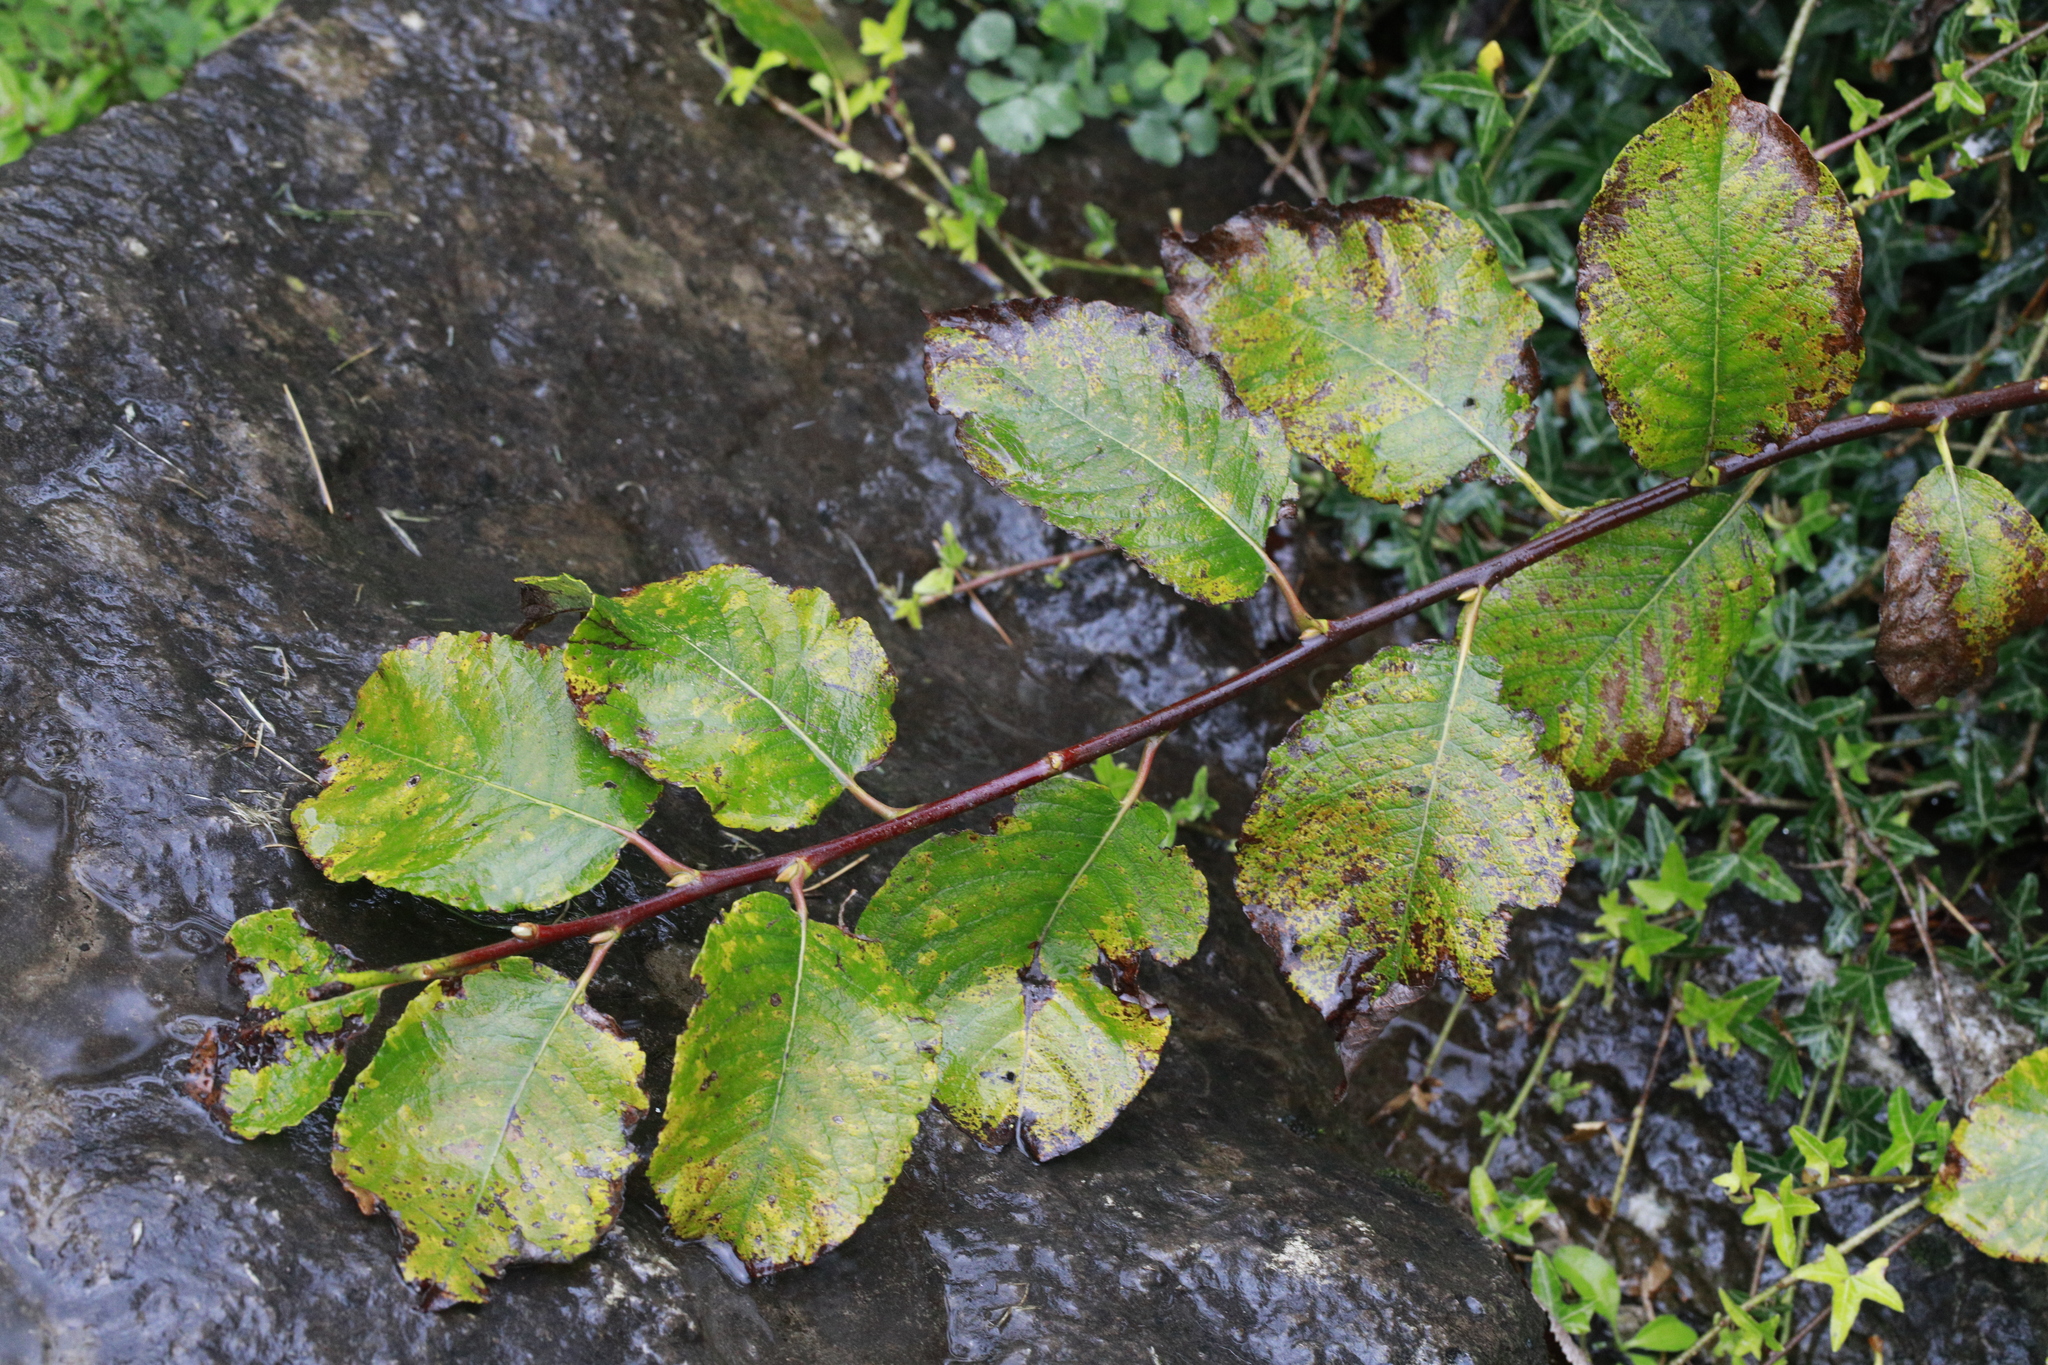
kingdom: Plantae
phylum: Tracheophyta
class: Magnoliopsida
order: Malpighiales
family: Salicaceae
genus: Salix
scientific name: Salix caprea
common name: Goat willow
